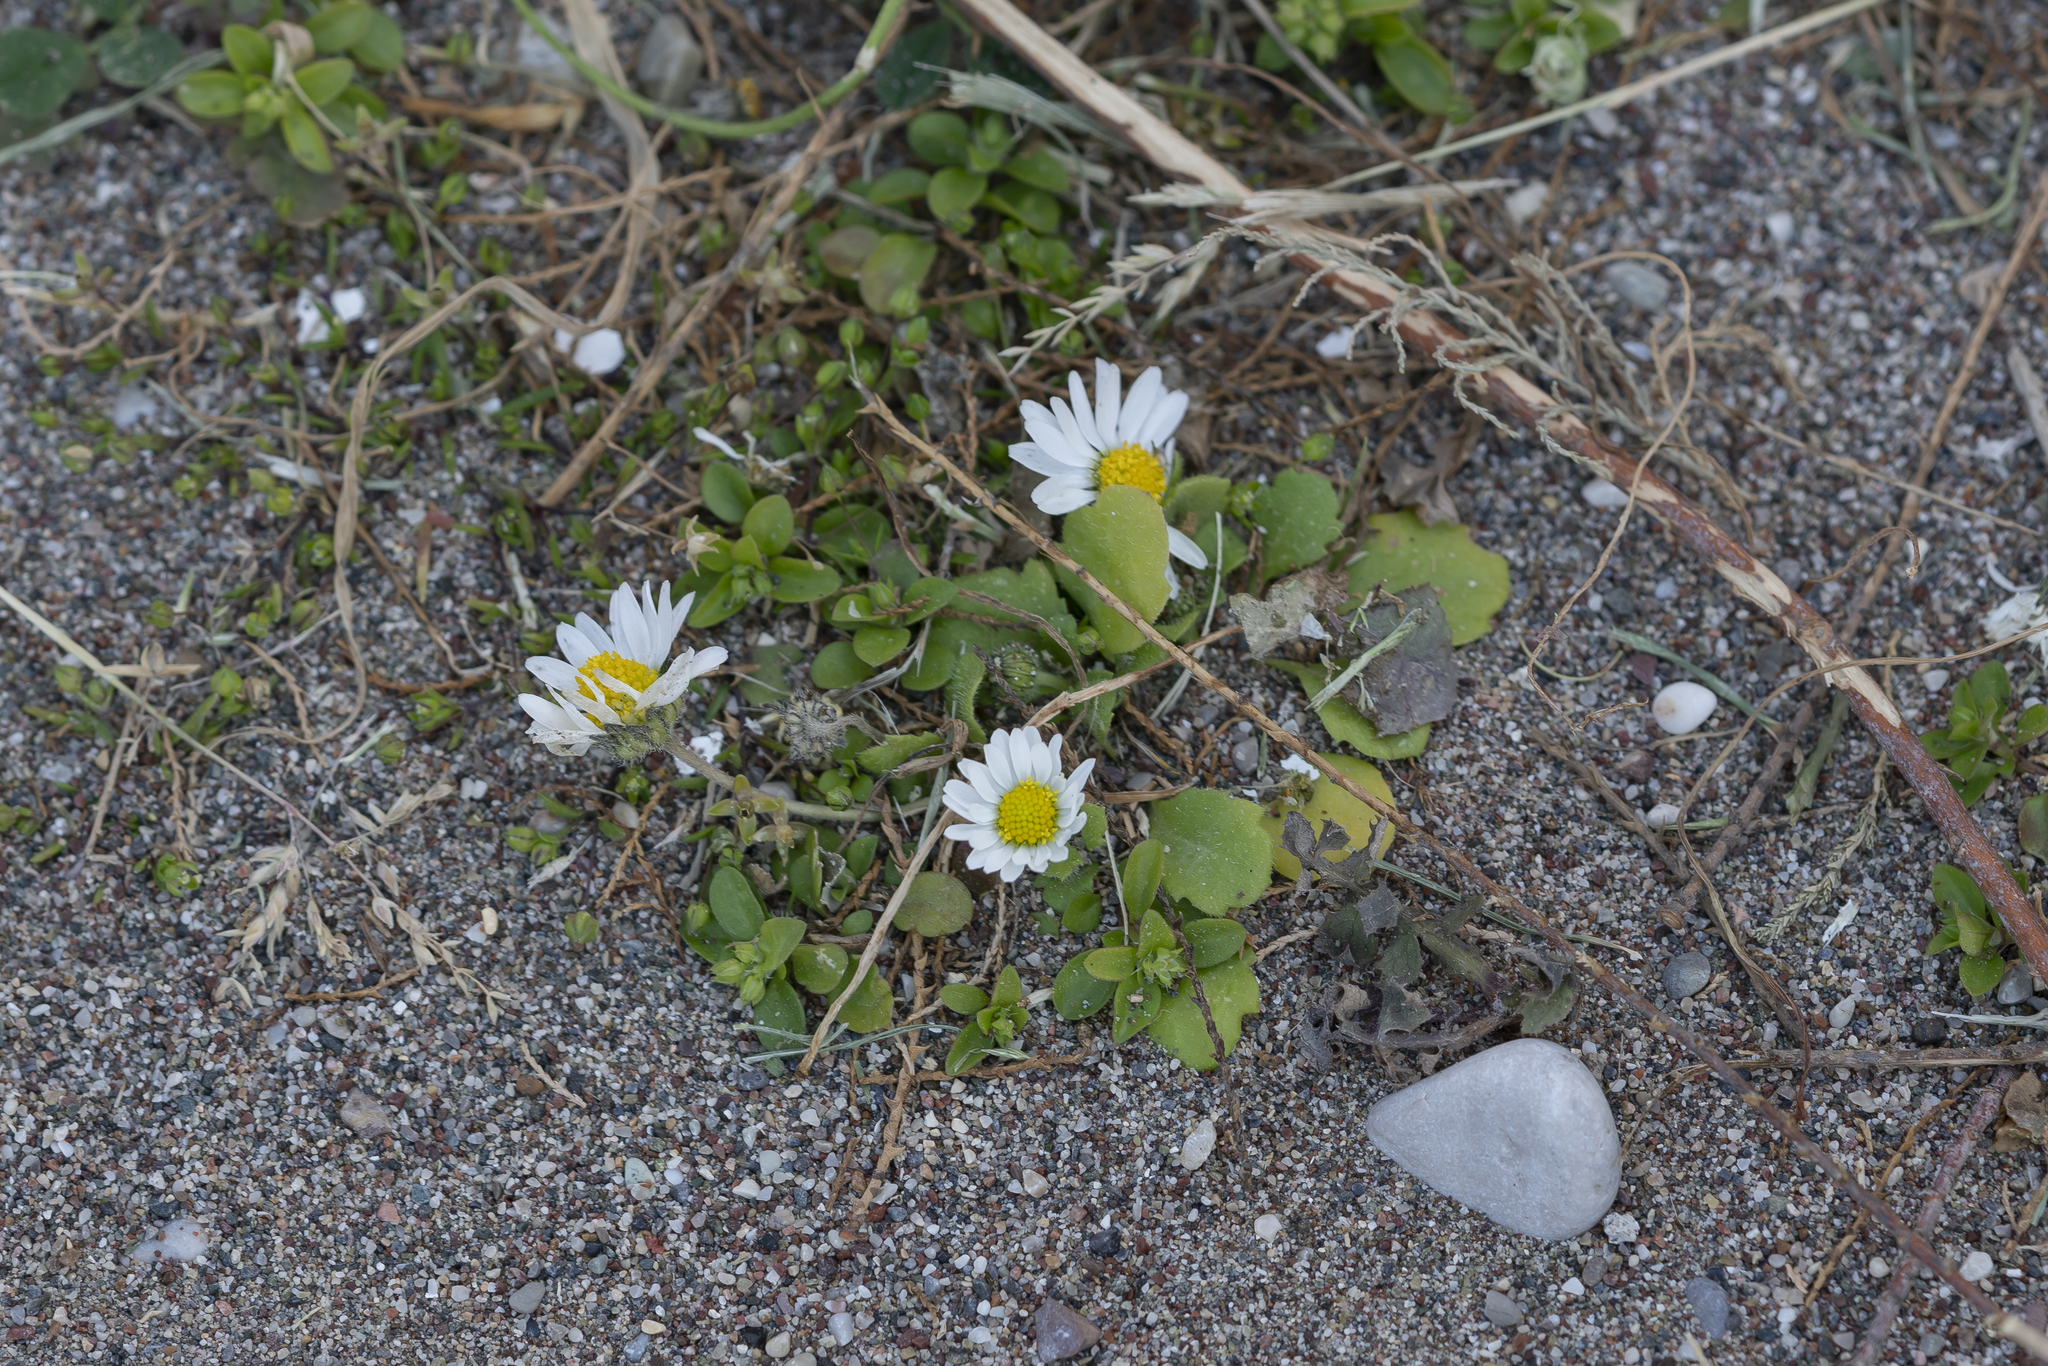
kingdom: Plantae
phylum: Tracheophyta
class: Magnoliopsida
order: Asterales
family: Asteraceae
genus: Bellis
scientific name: Bellis annua
